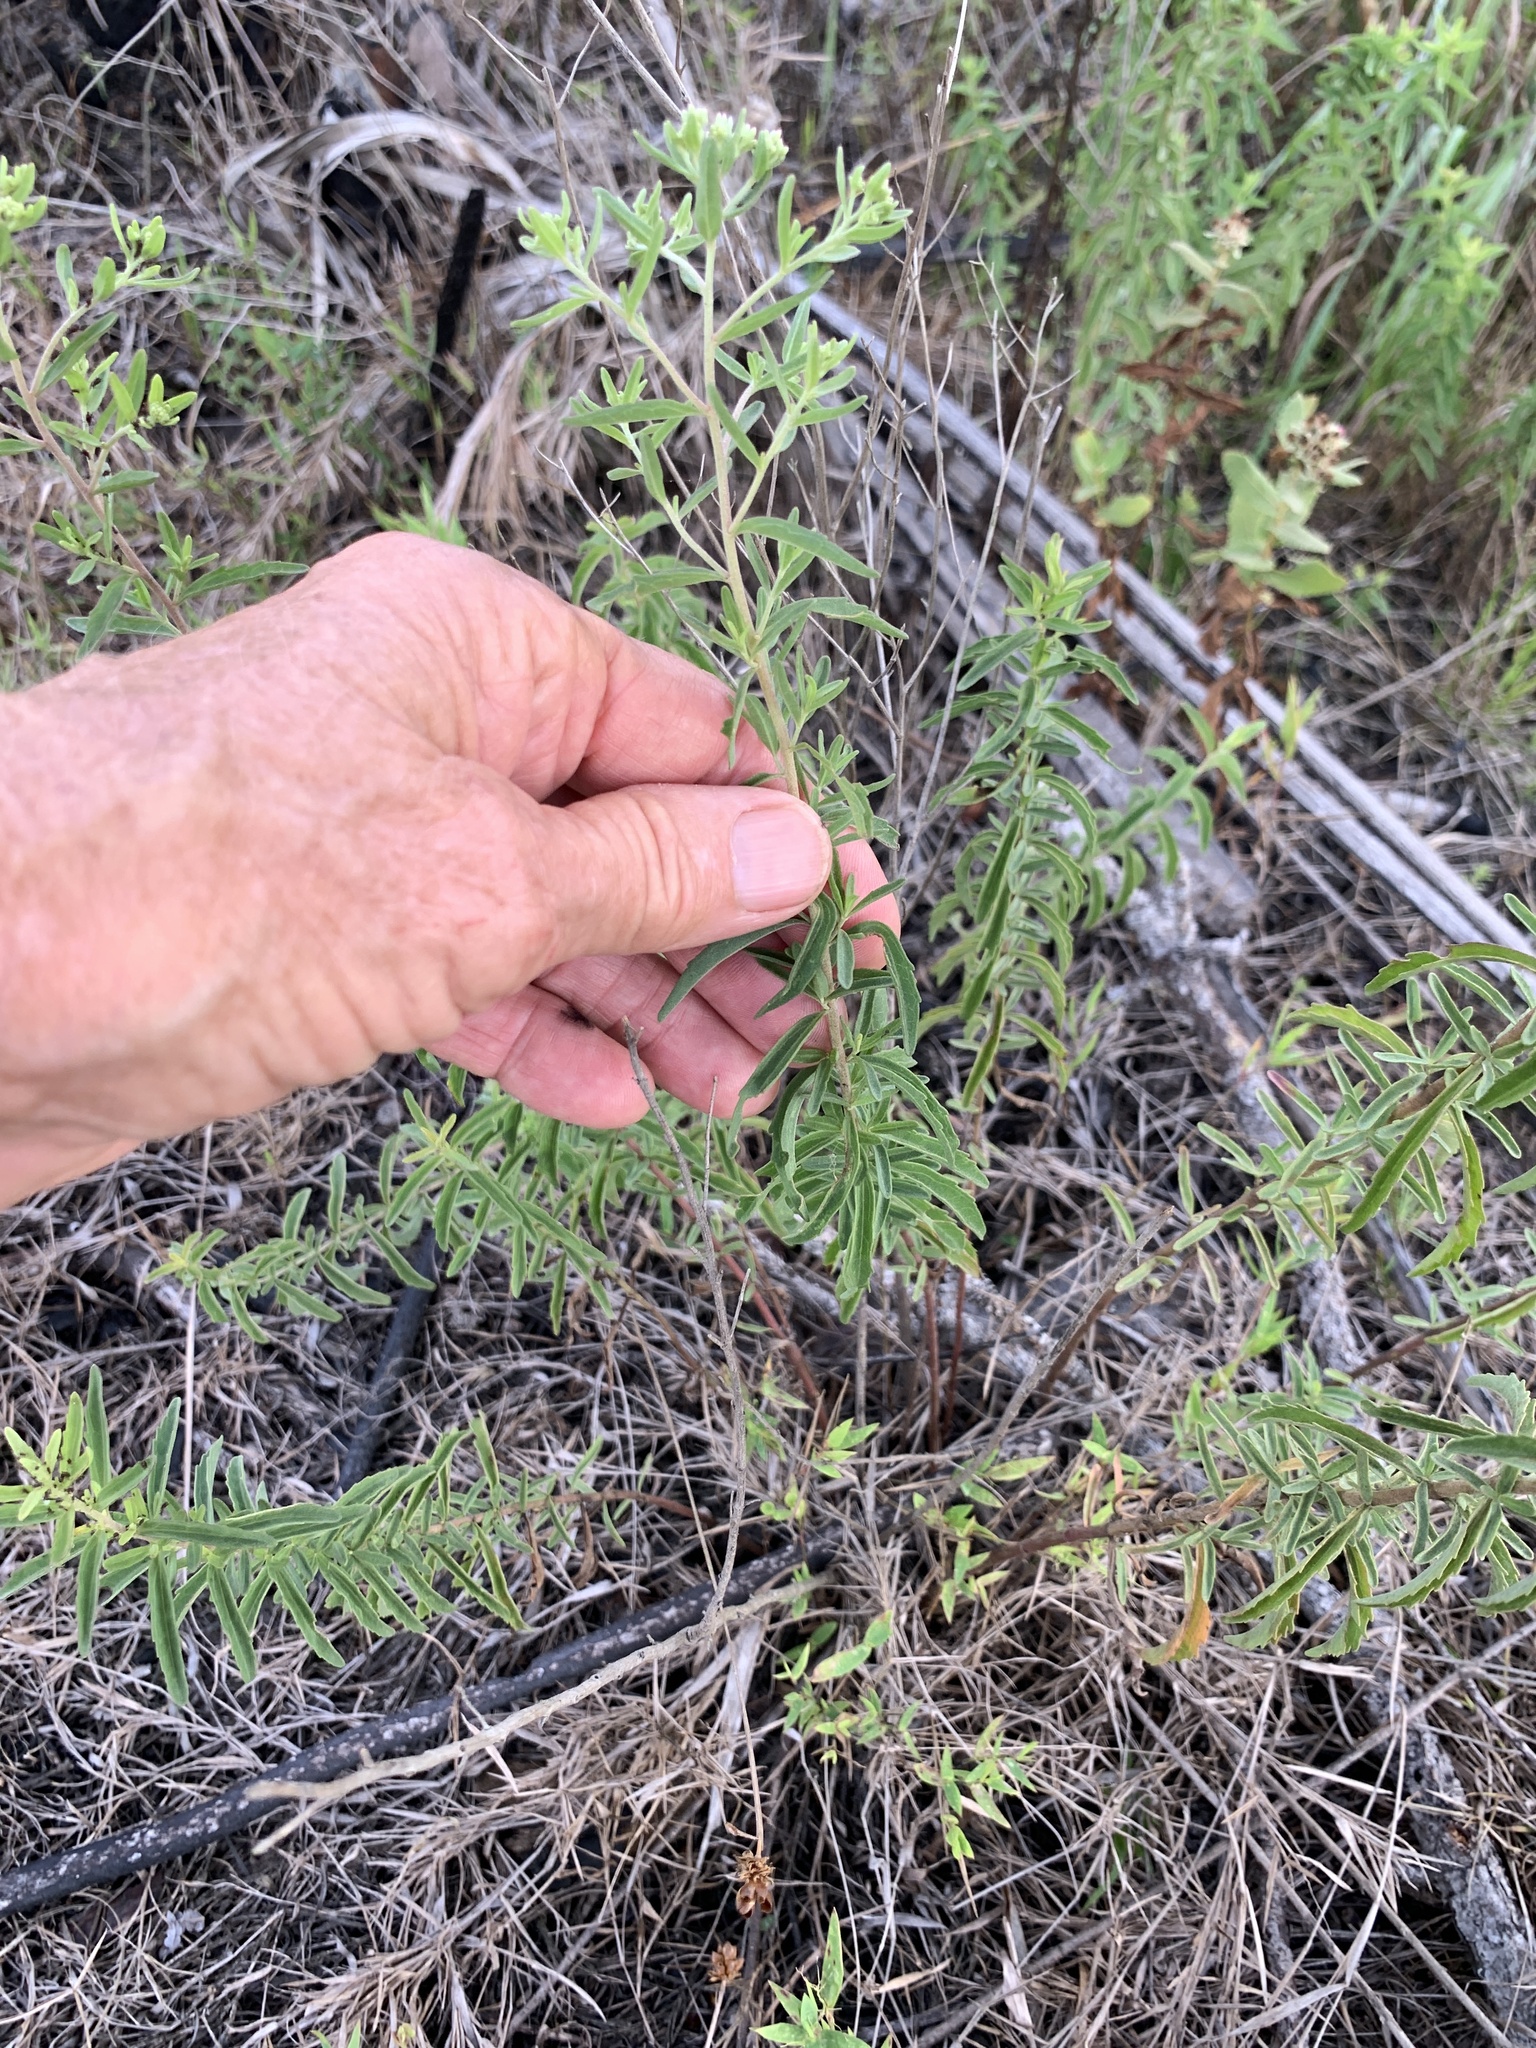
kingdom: Plantae
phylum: Tracheophyta
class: Magnoliopsida
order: Asterales
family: Asteraceae
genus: Eupatorium
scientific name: Eupatorium mohrii
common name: Mohr's thoroughwort
